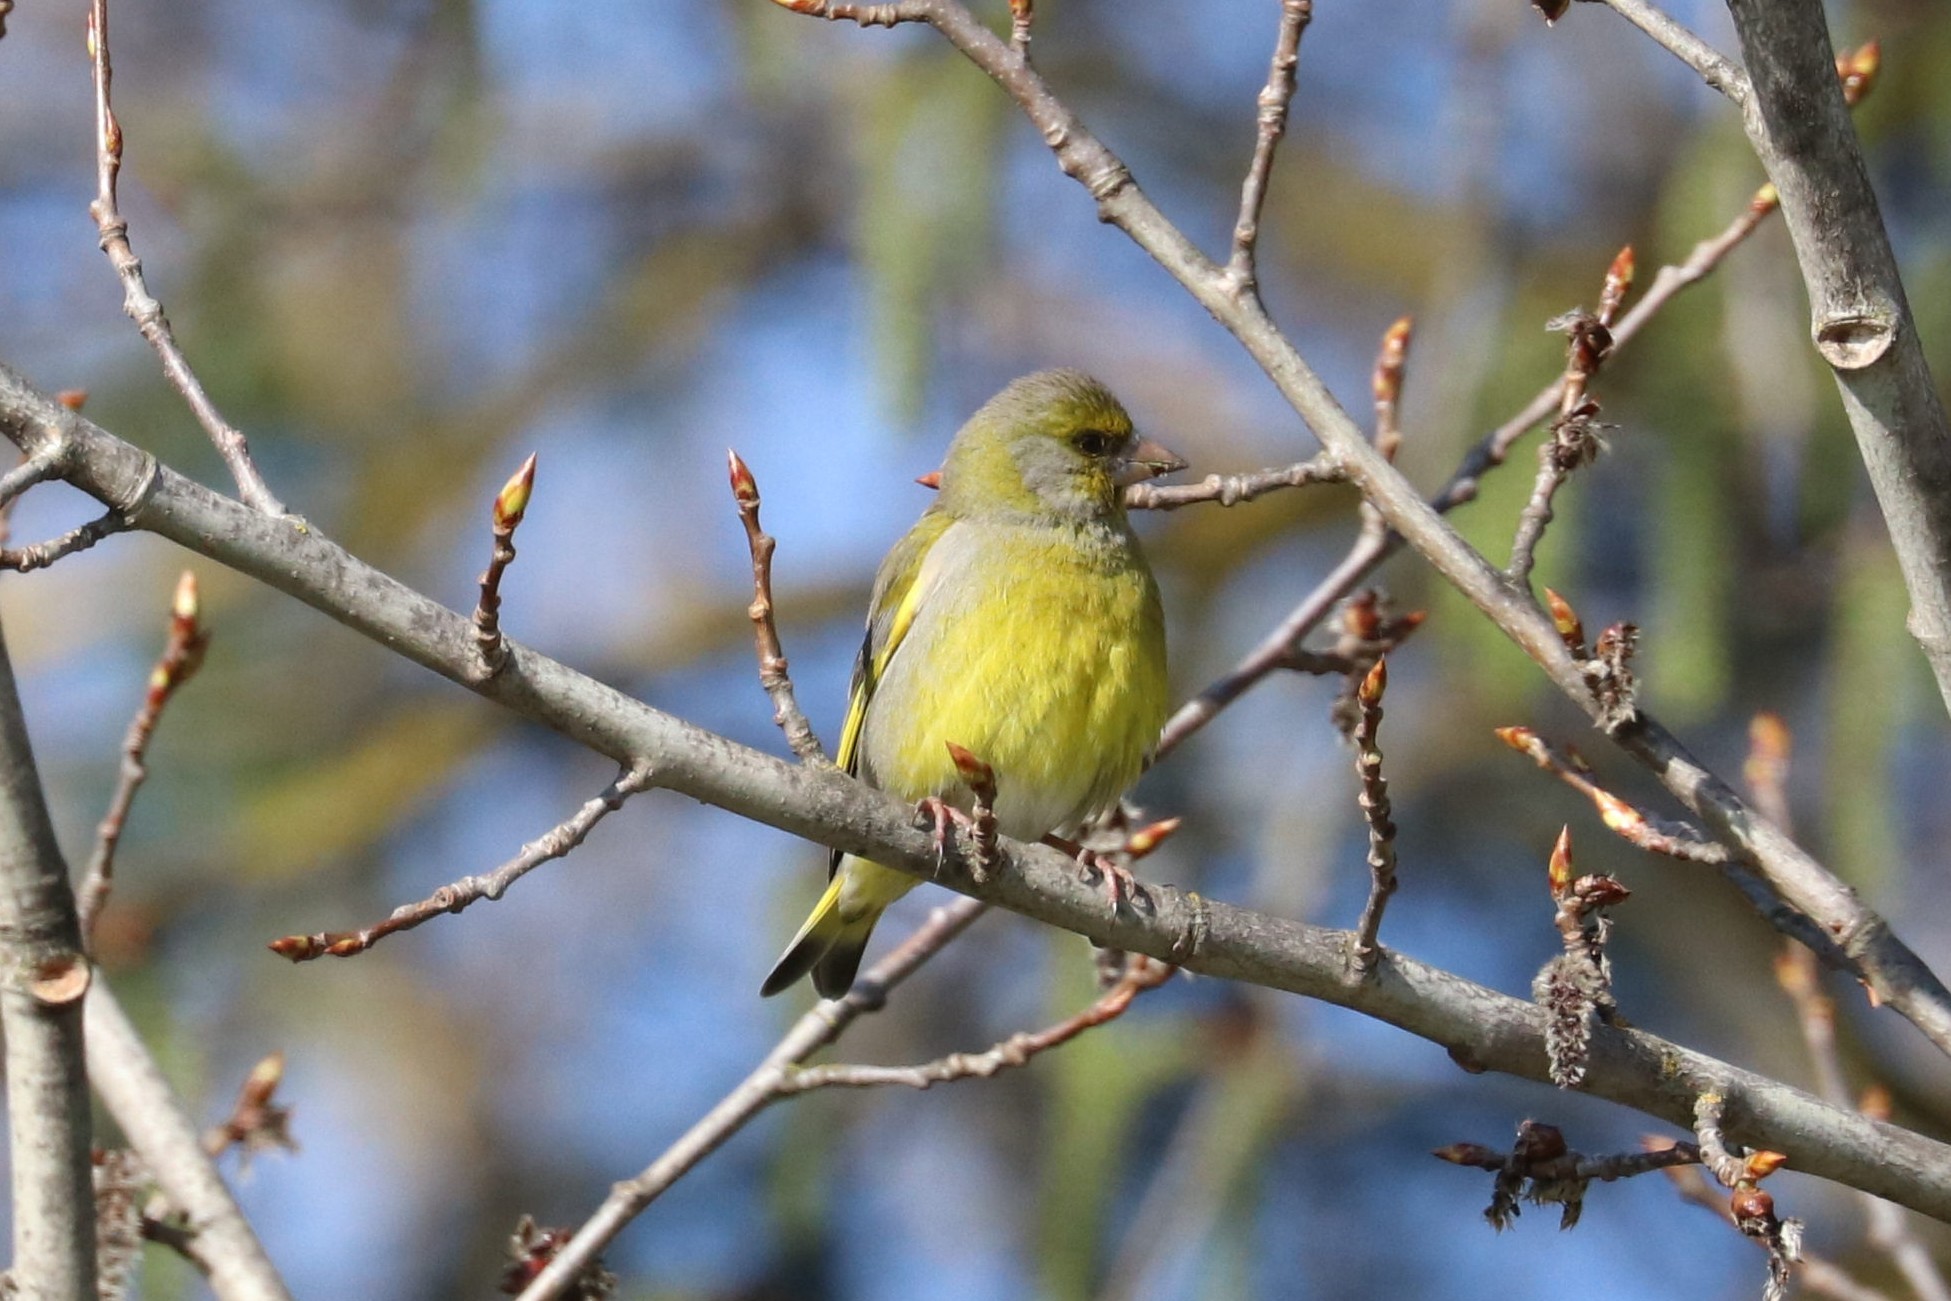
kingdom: Plantae
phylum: Tracheophyta
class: Liliopsida
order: Poales
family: Poaceae
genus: Chloris
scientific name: Chloris chloris
